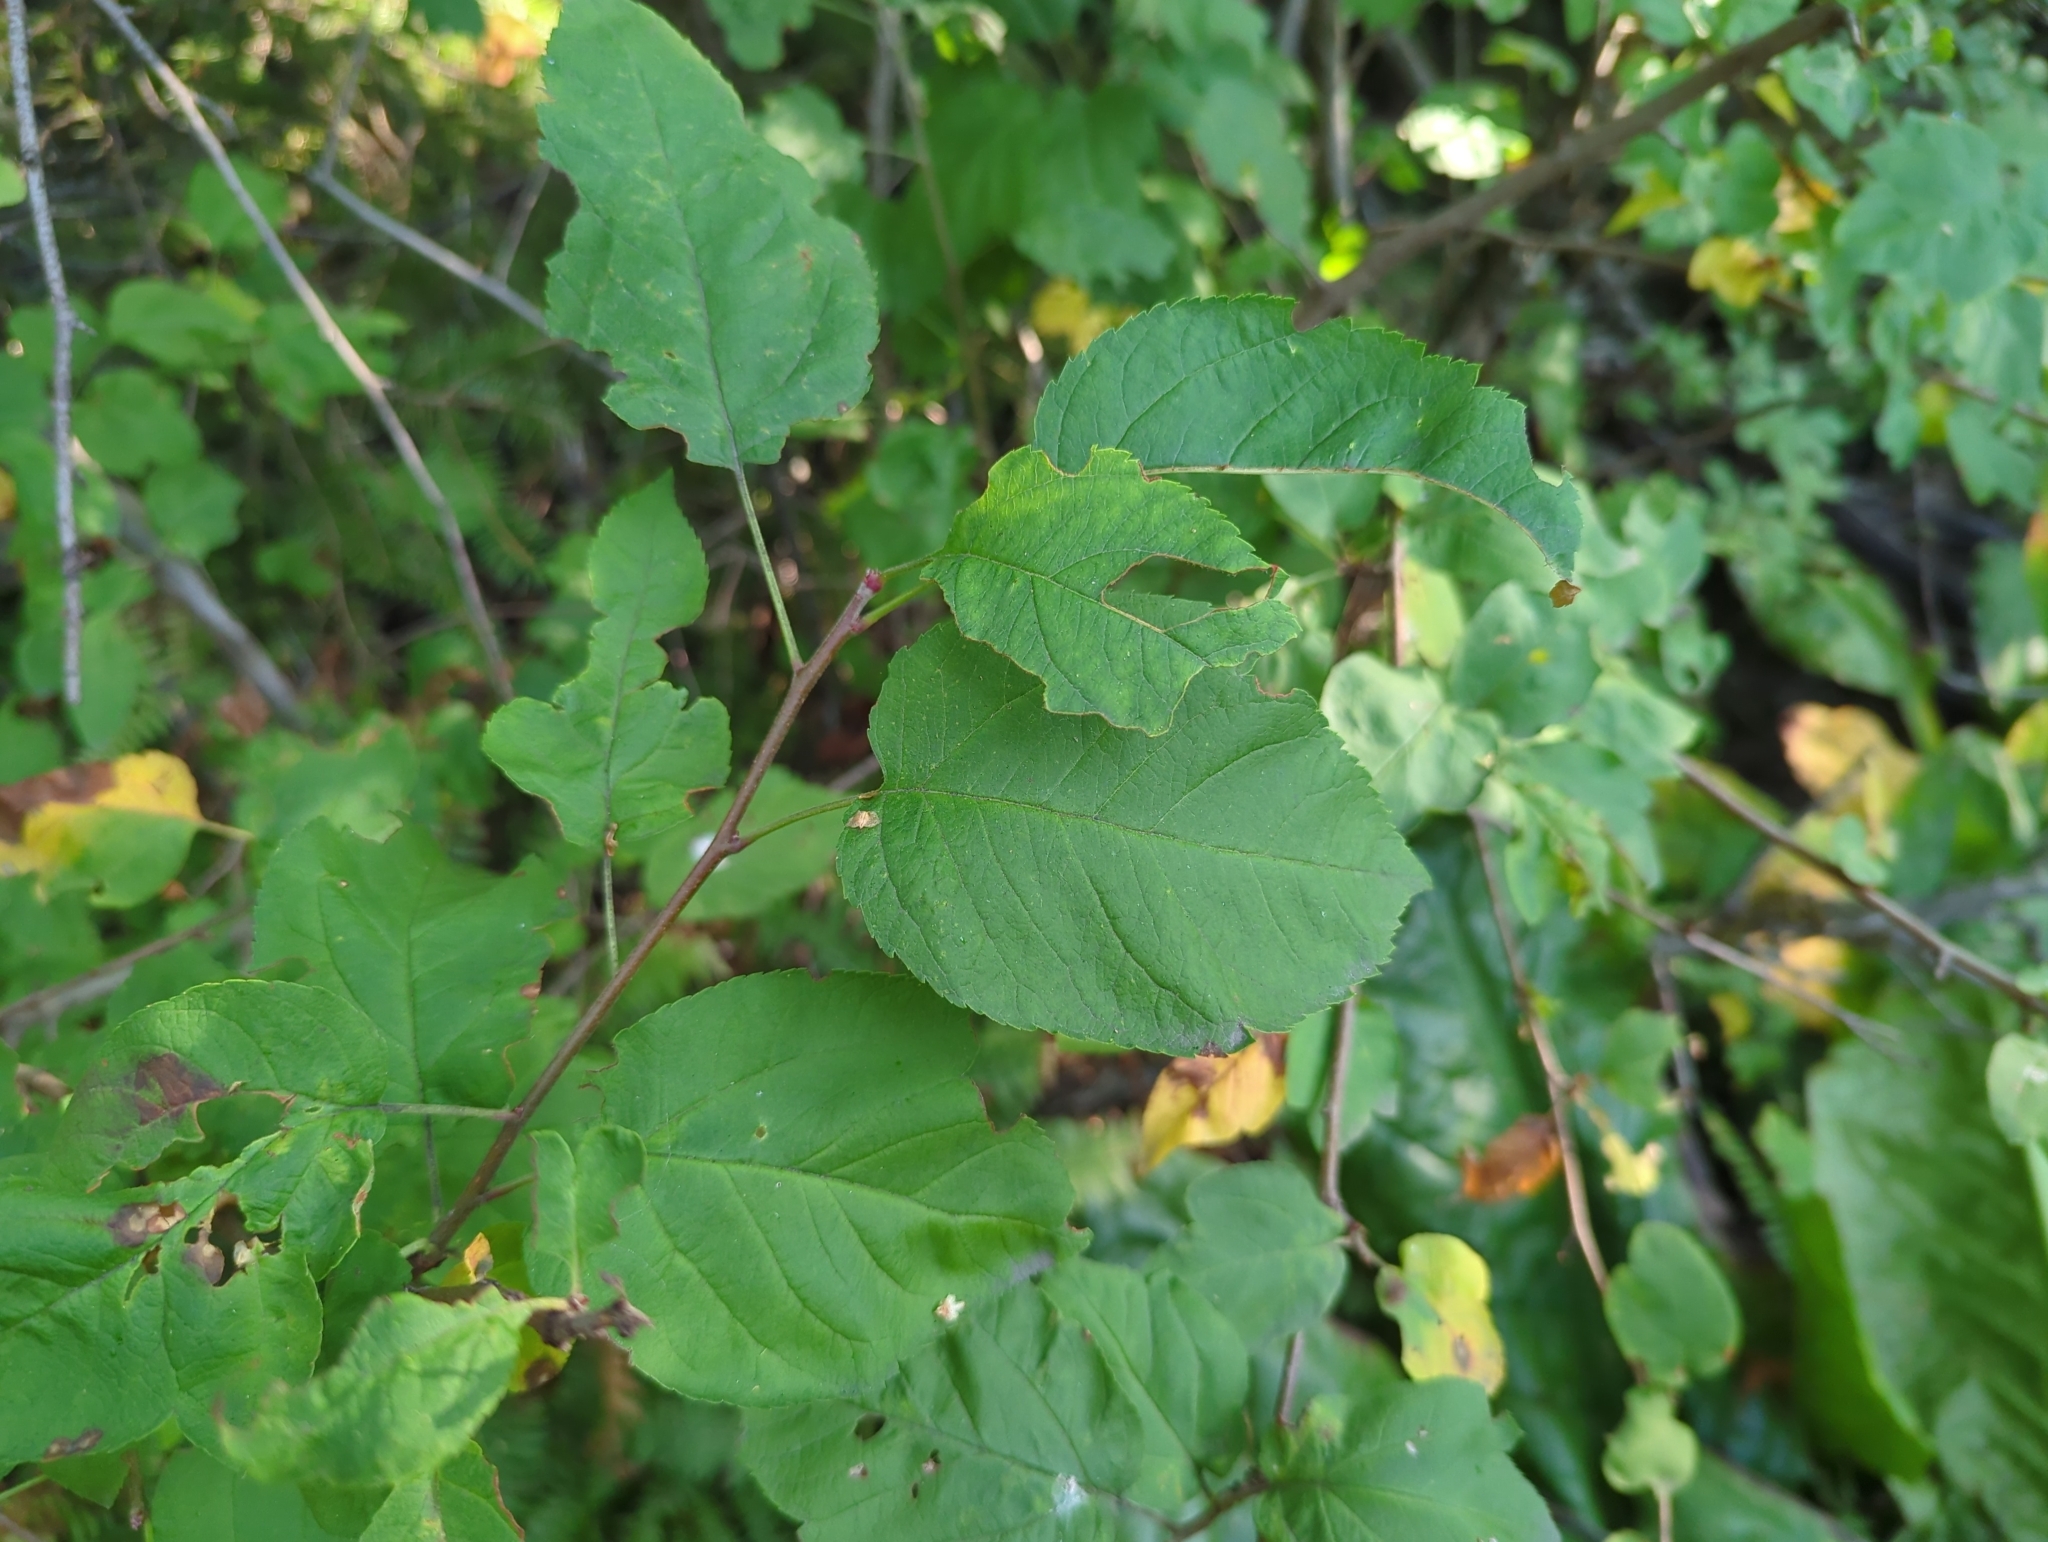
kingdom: Plantae
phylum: Tracheophyta
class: Magnoliopsida
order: Rosales
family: Rosaceae
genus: Malus
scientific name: Malus fusca
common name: Oregon crab apple
